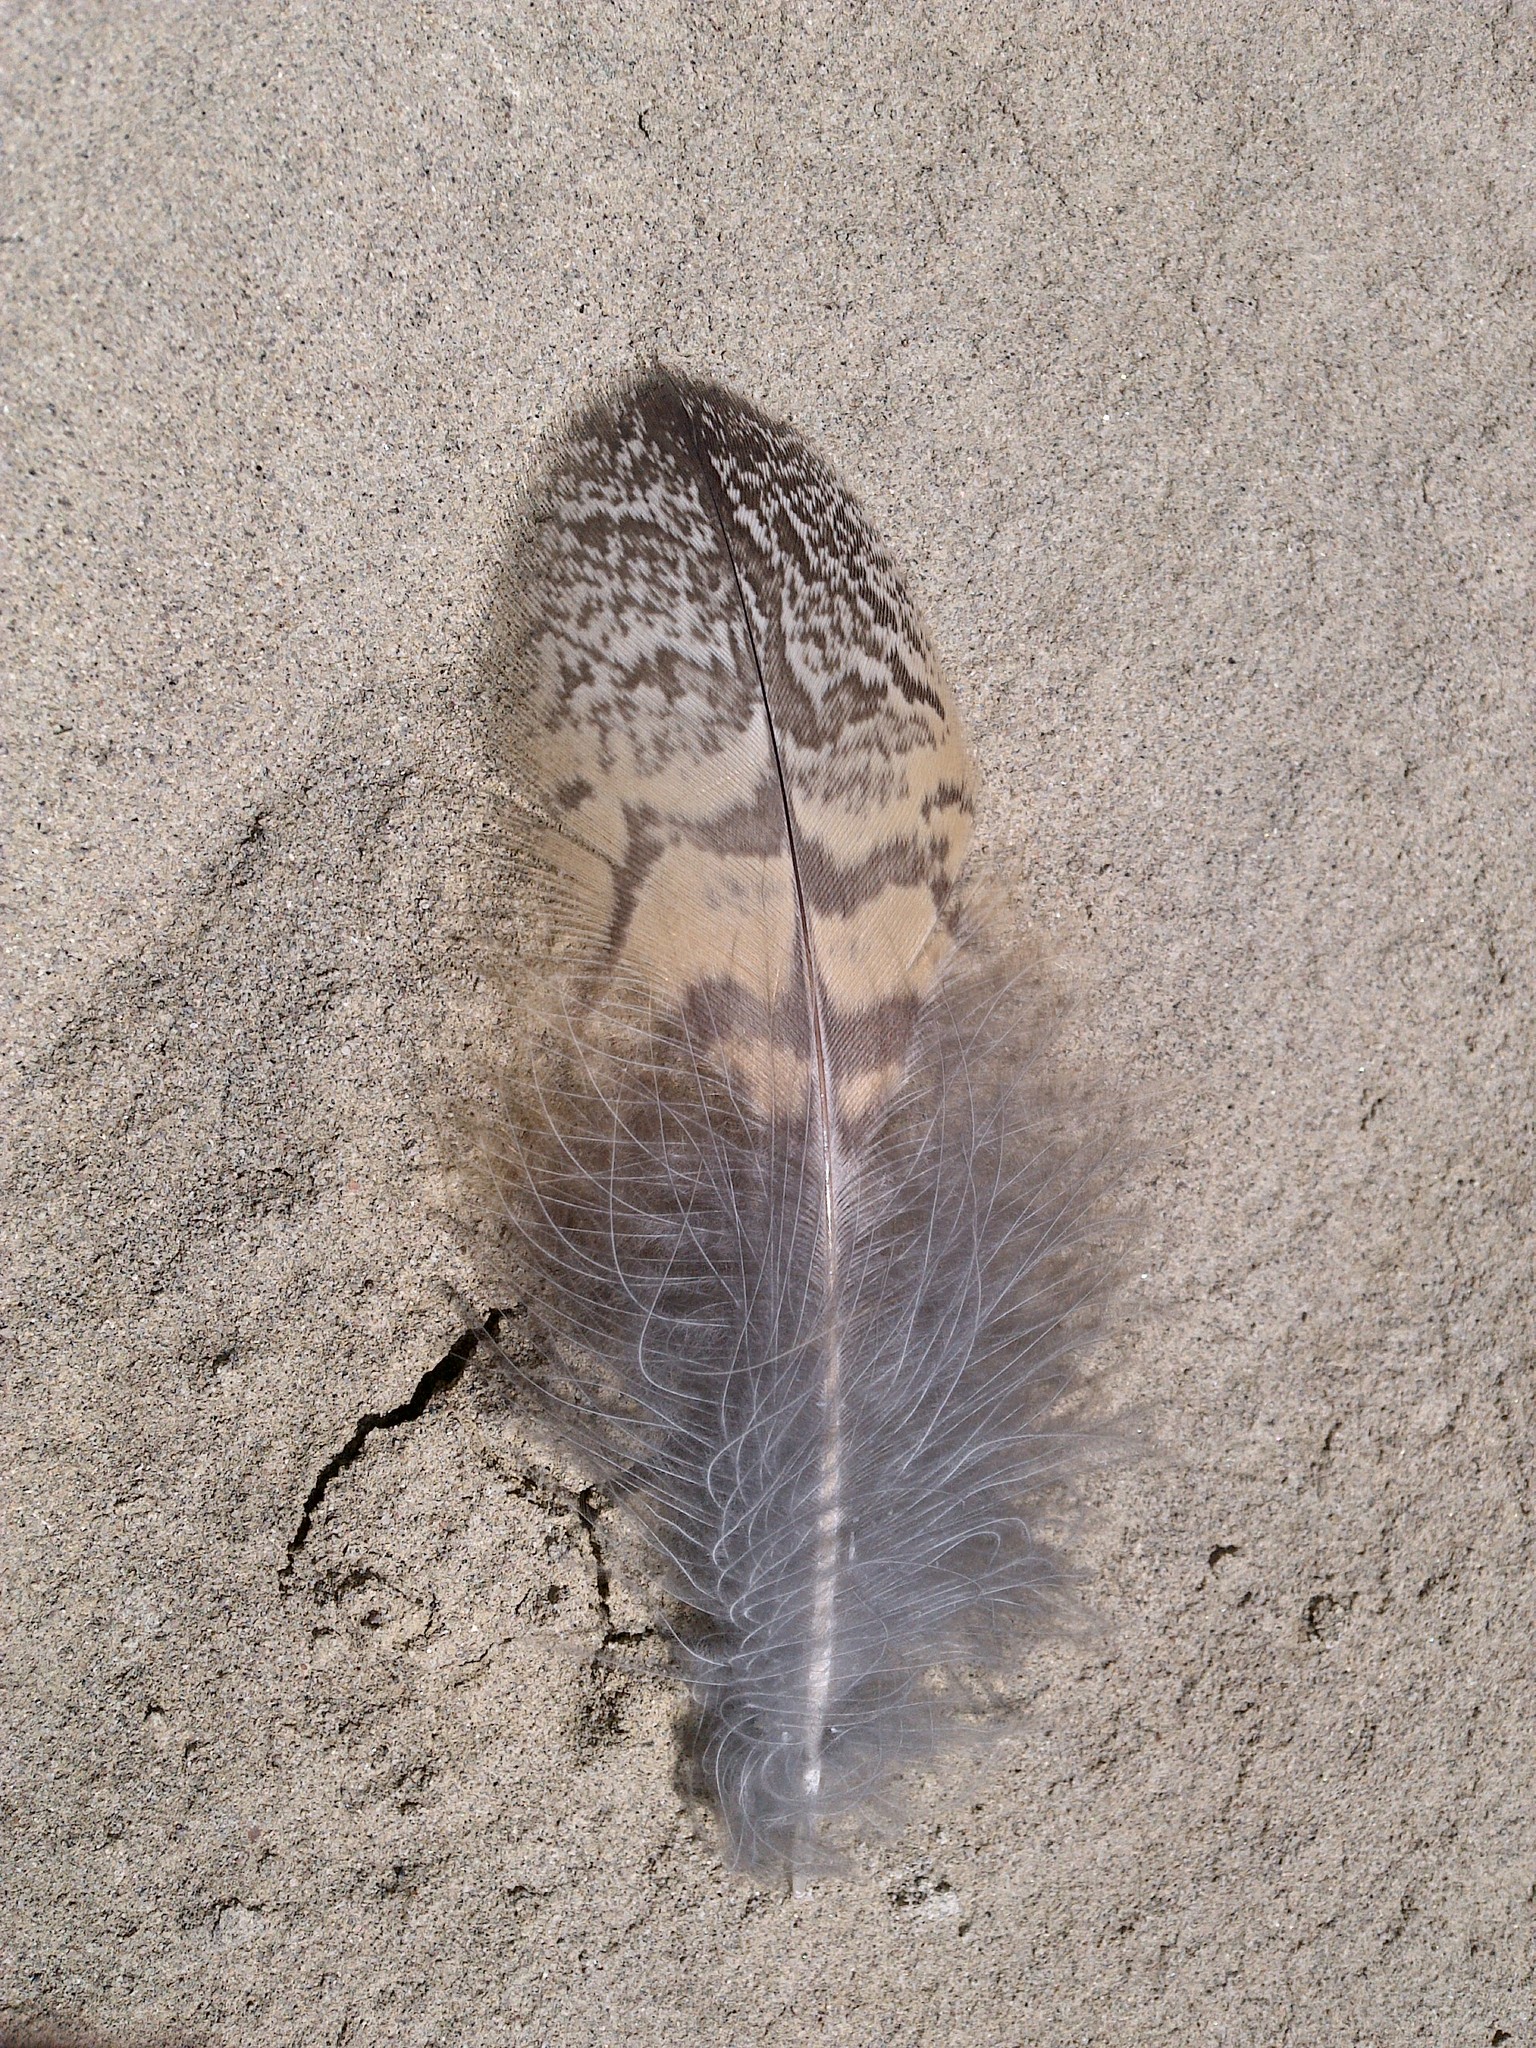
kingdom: Animalia
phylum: Chordata
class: Aves
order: Strigiformes
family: Strigidae
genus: Bubo
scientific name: Bubo virginianus
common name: Great horned owl
